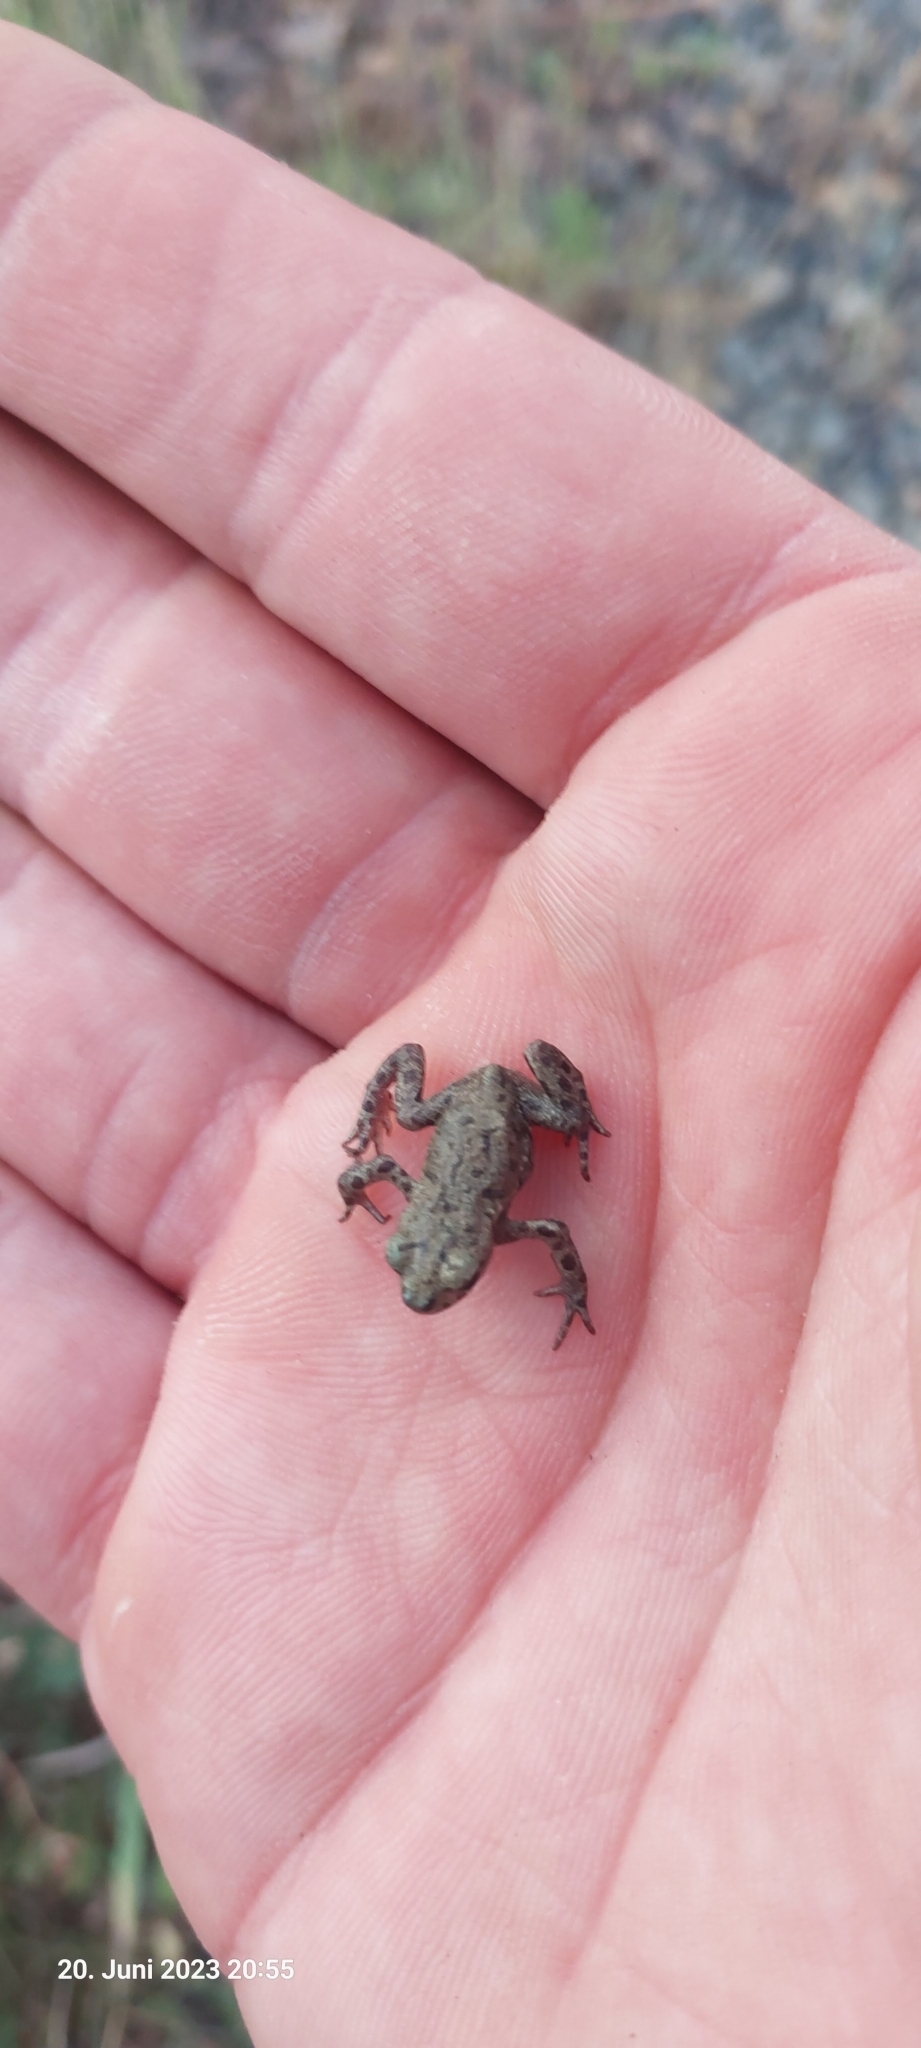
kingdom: Animalia
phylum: Chordata
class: Amphibia
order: Anura
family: Bufonidae
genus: Bufo
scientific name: Bufo bufo
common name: Common toad
